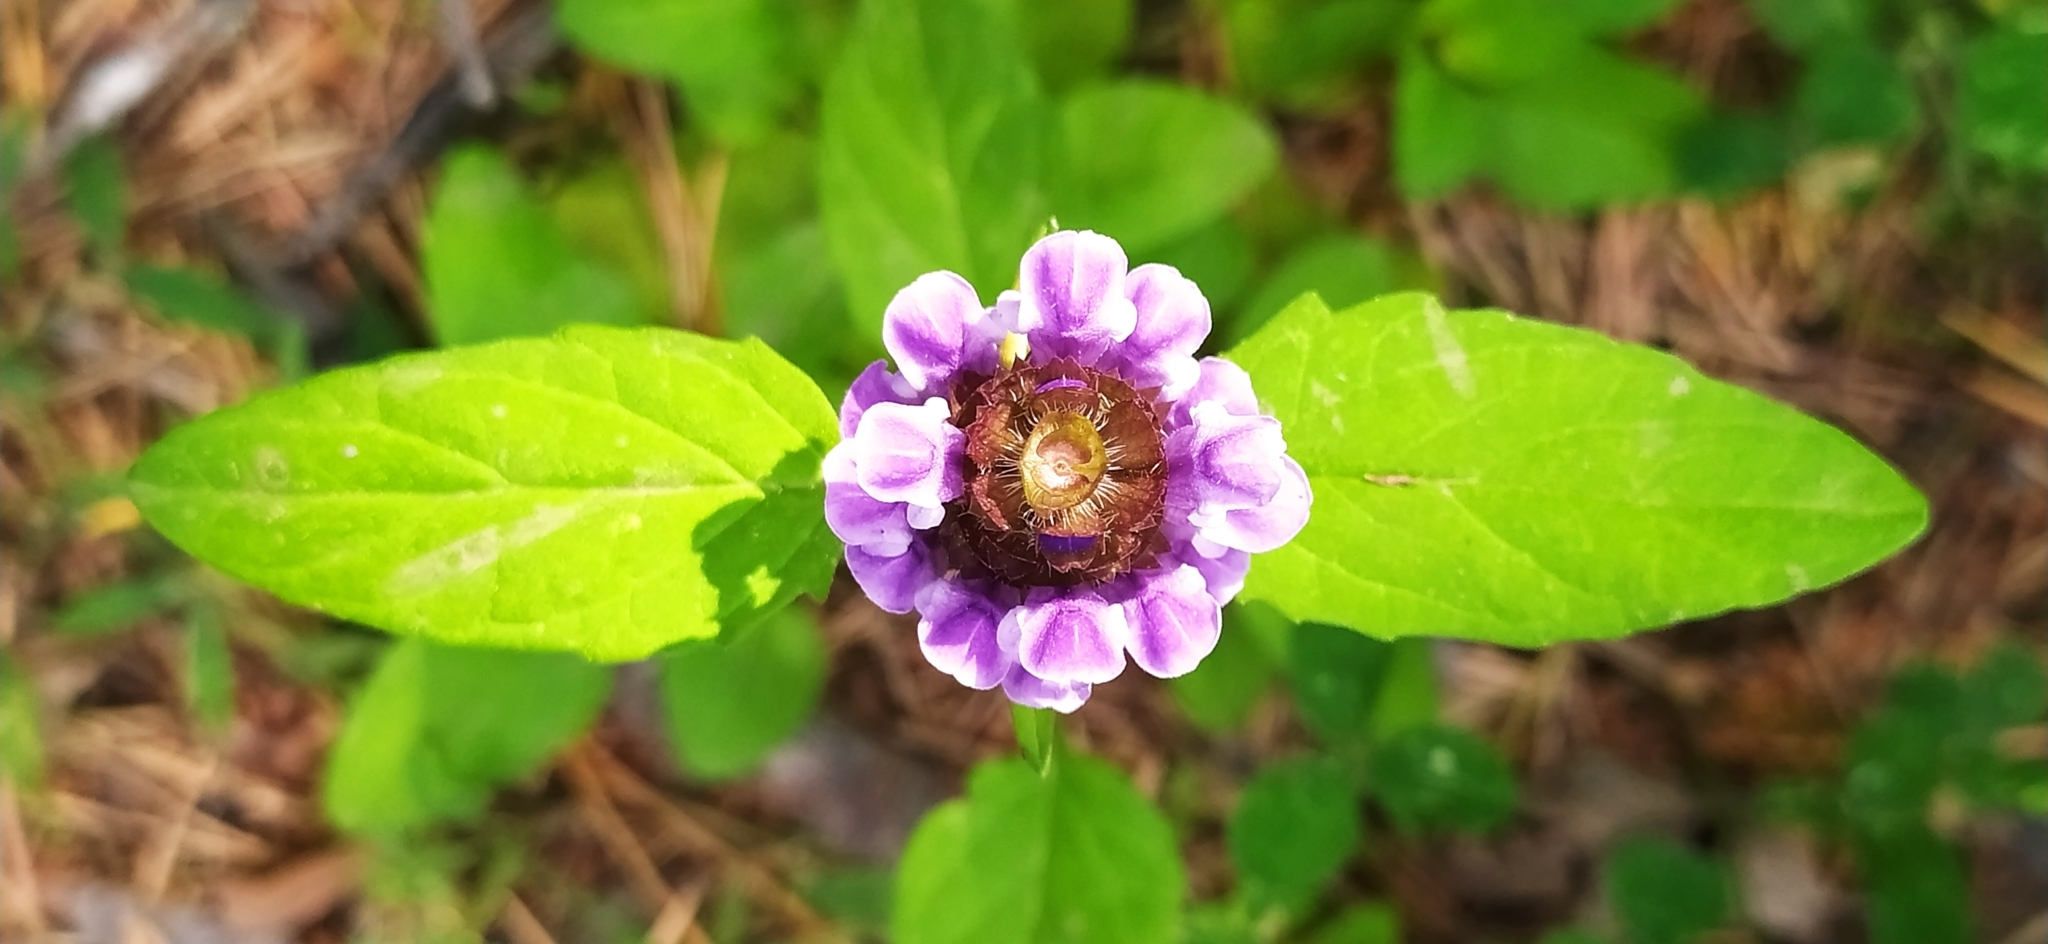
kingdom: Plantae
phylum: Tracheophyta
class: Magnoliopsida
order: Lamiales
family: Lamiaceae
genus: Prunella
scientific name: Prunella vulgaris
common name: Heal-all
